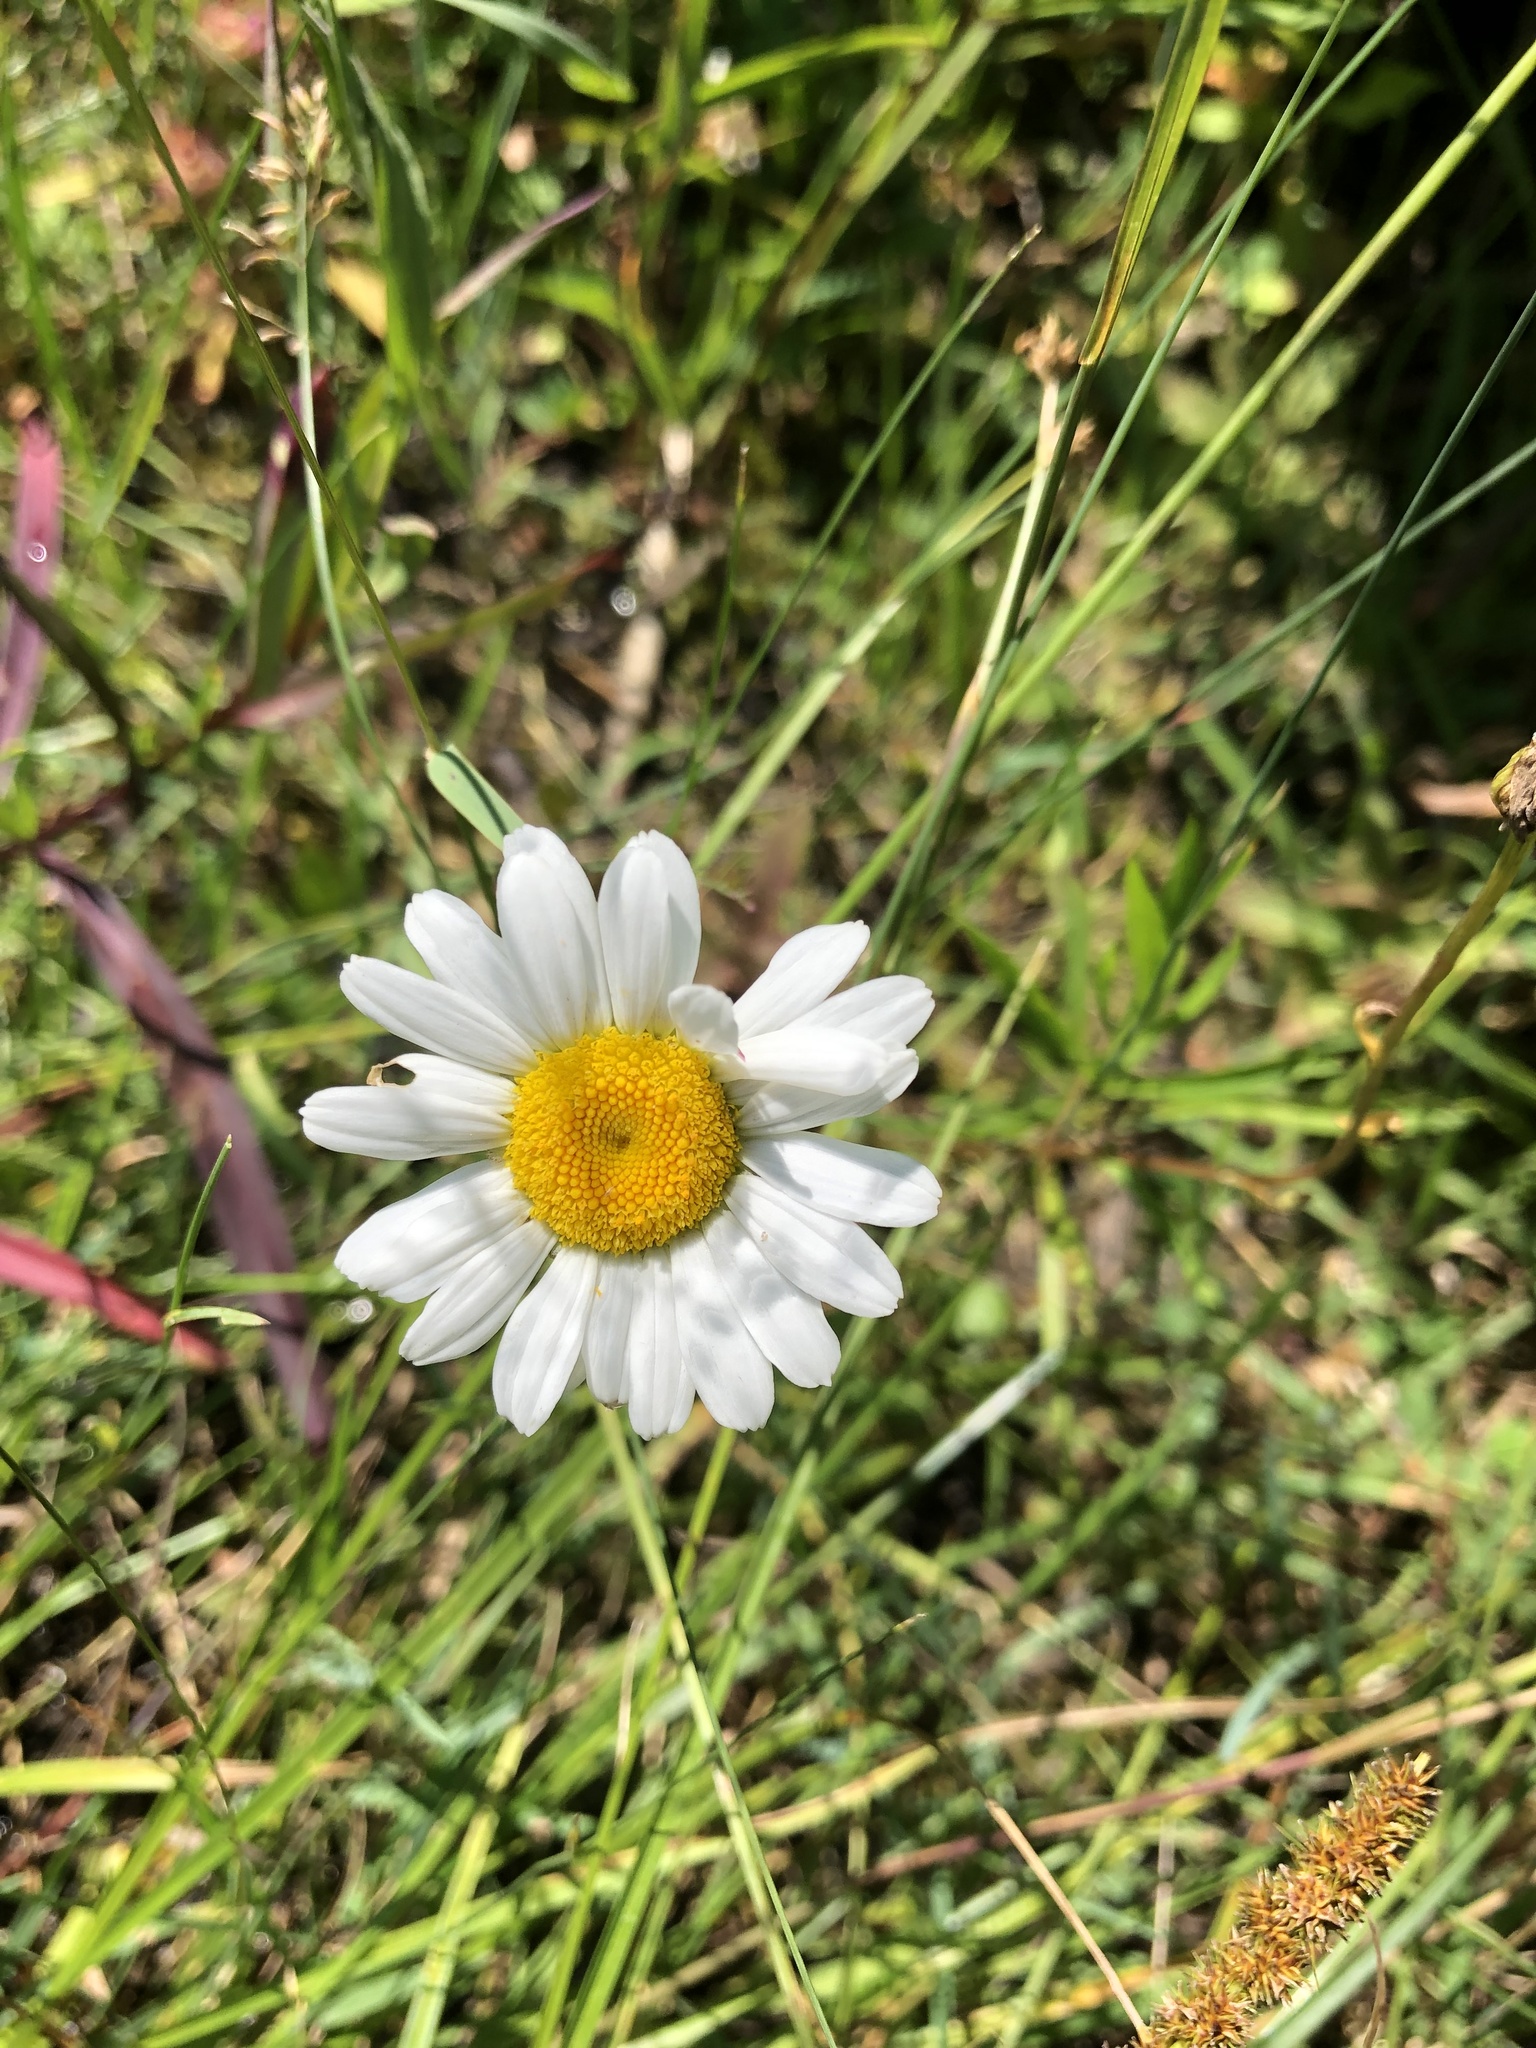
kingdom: Plantae
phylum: Tracheophyta
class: Magnoliopsida
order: Asterales
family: Asteraceae
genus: Leucanthemum
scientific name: Leucanthemum vulgare
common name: Oxeye daisy
